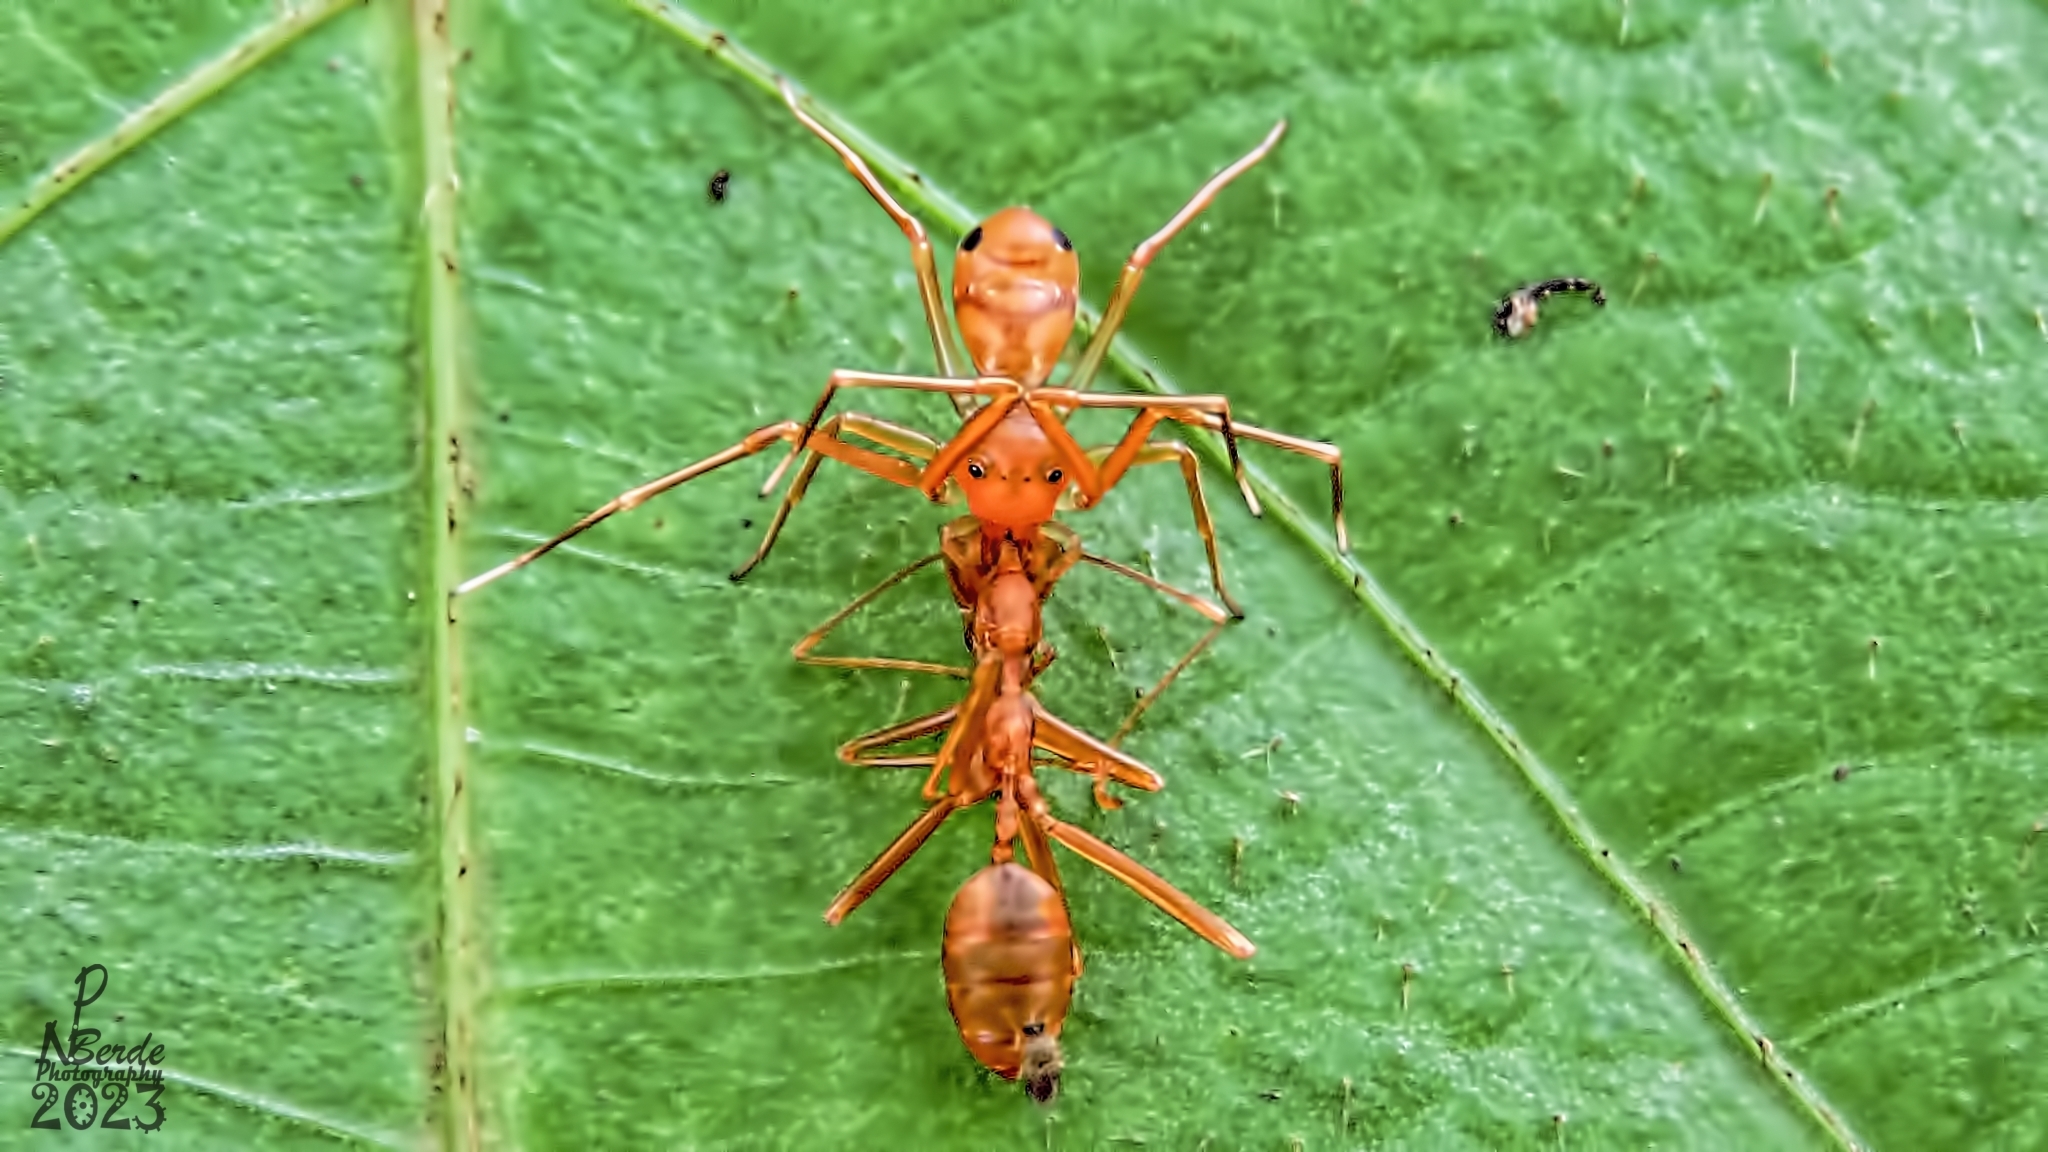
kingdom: Animalia
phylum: Arthropoda
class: Arachnida
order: Araneae
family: Thomisidae
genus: Amyciaea
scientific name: Amyciaea forticeps
